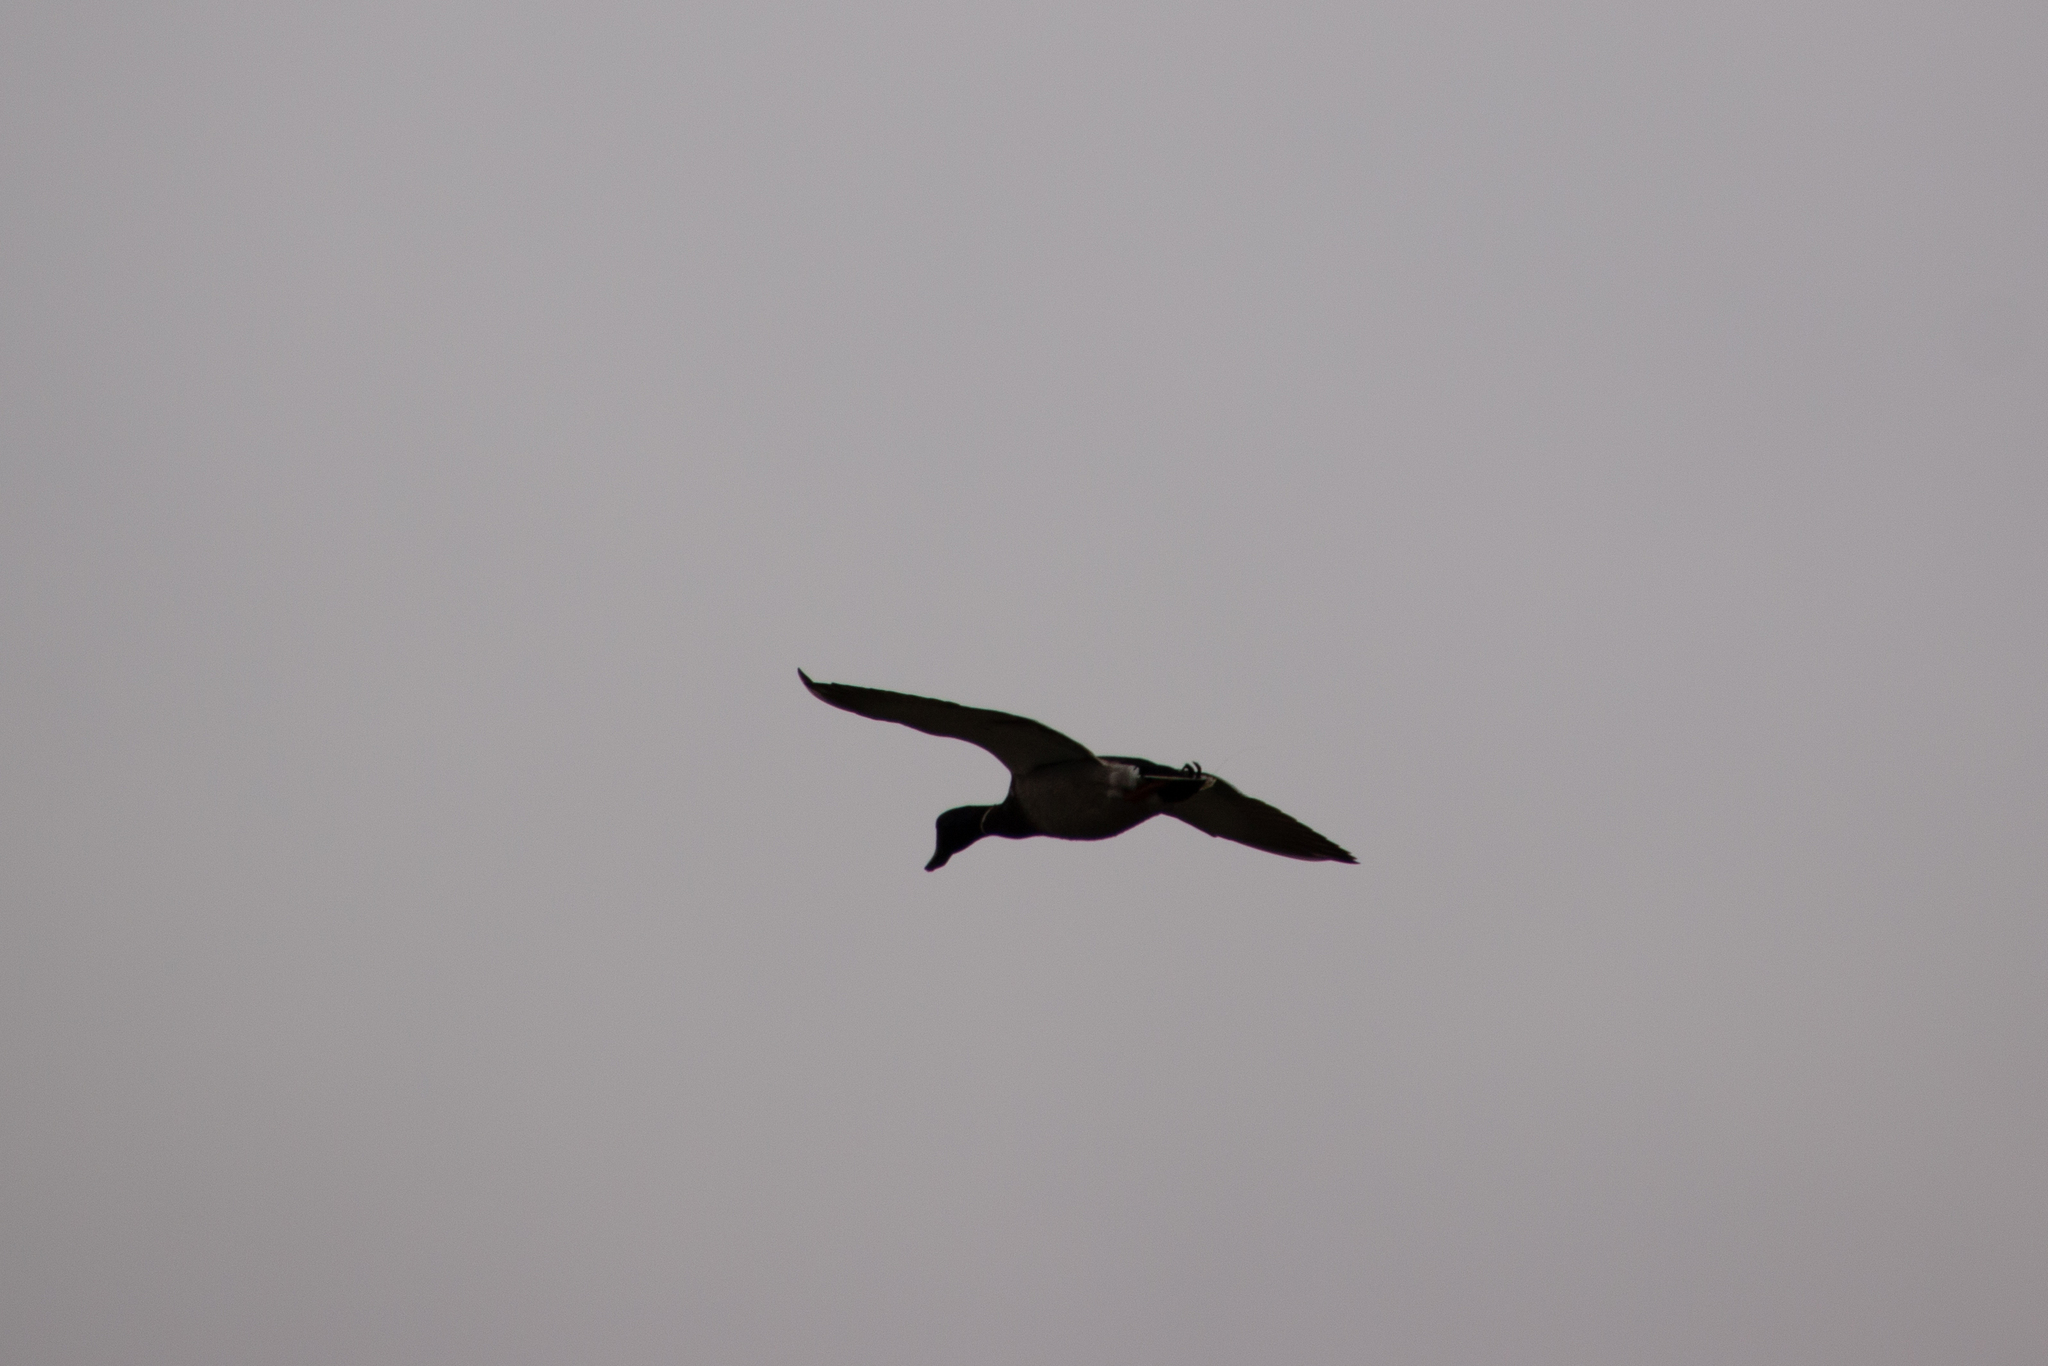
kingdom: Animalia
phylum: Chordata
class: Aves
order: Anseriformes
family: Anatidae
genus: Anas
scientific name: Anas platyrhynchos
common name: Mallard
